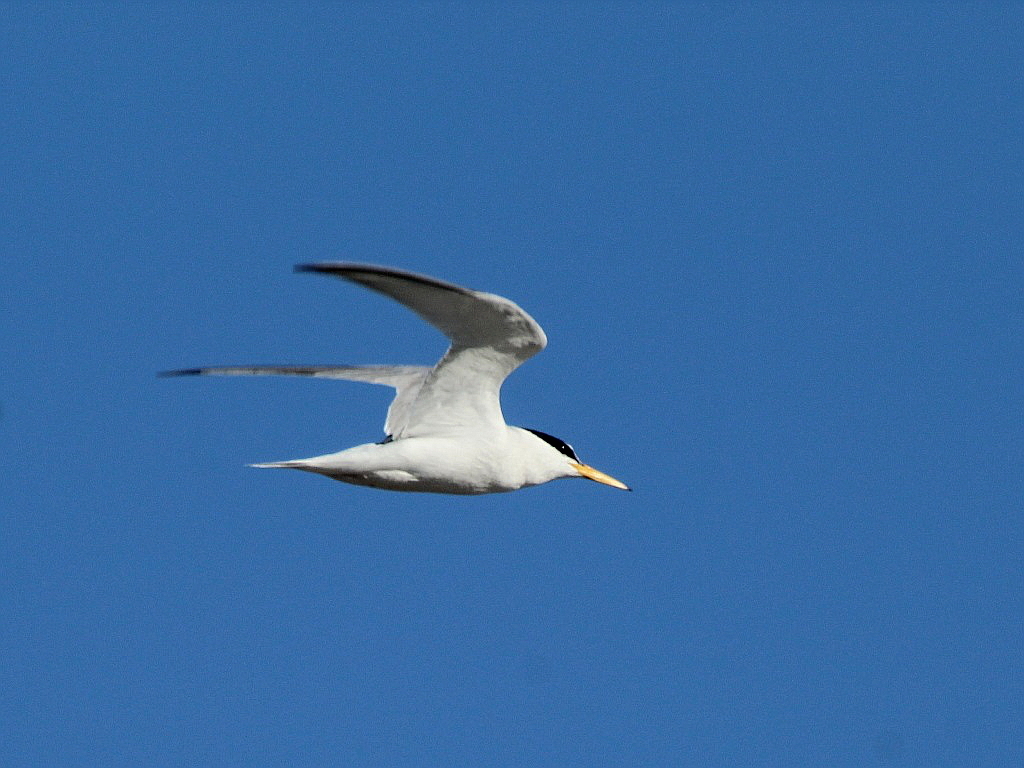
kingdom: Animalia
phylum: Chordata
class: Aves
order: Charadriiformes
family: Laridae
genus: Sternula
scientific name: Sternula albifrons
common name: Little tern
